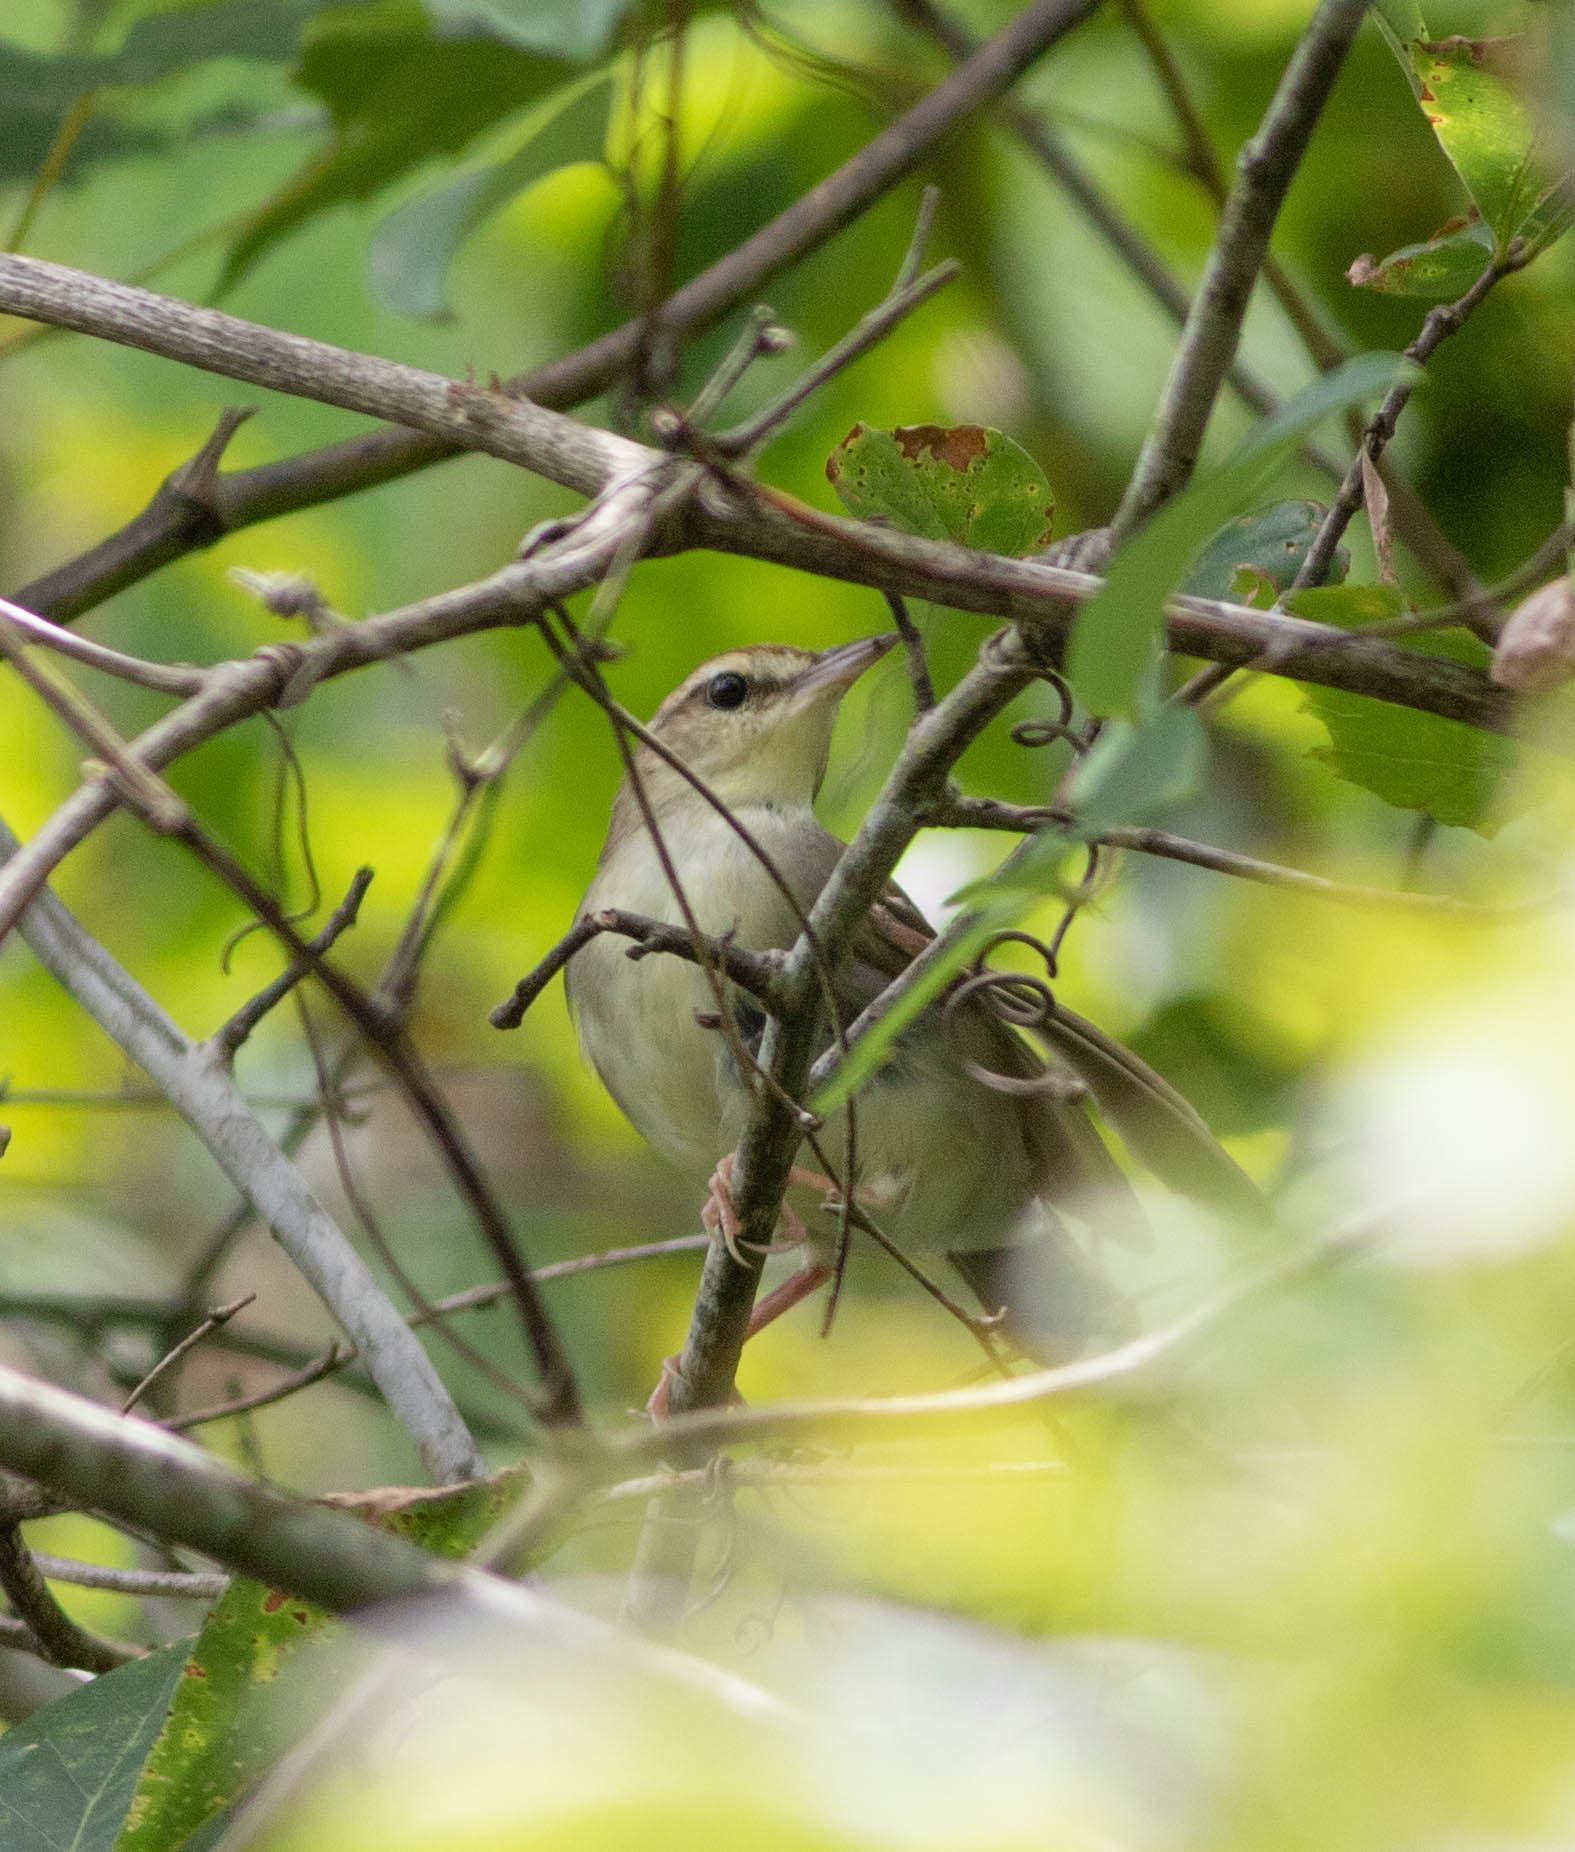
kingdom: Animalia
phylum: Chordata
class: Aves
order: Passeriformes
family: Parulidae
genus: Limnothlypis
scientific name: Limnothlypis swainsonii
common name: Swainson's warbler
